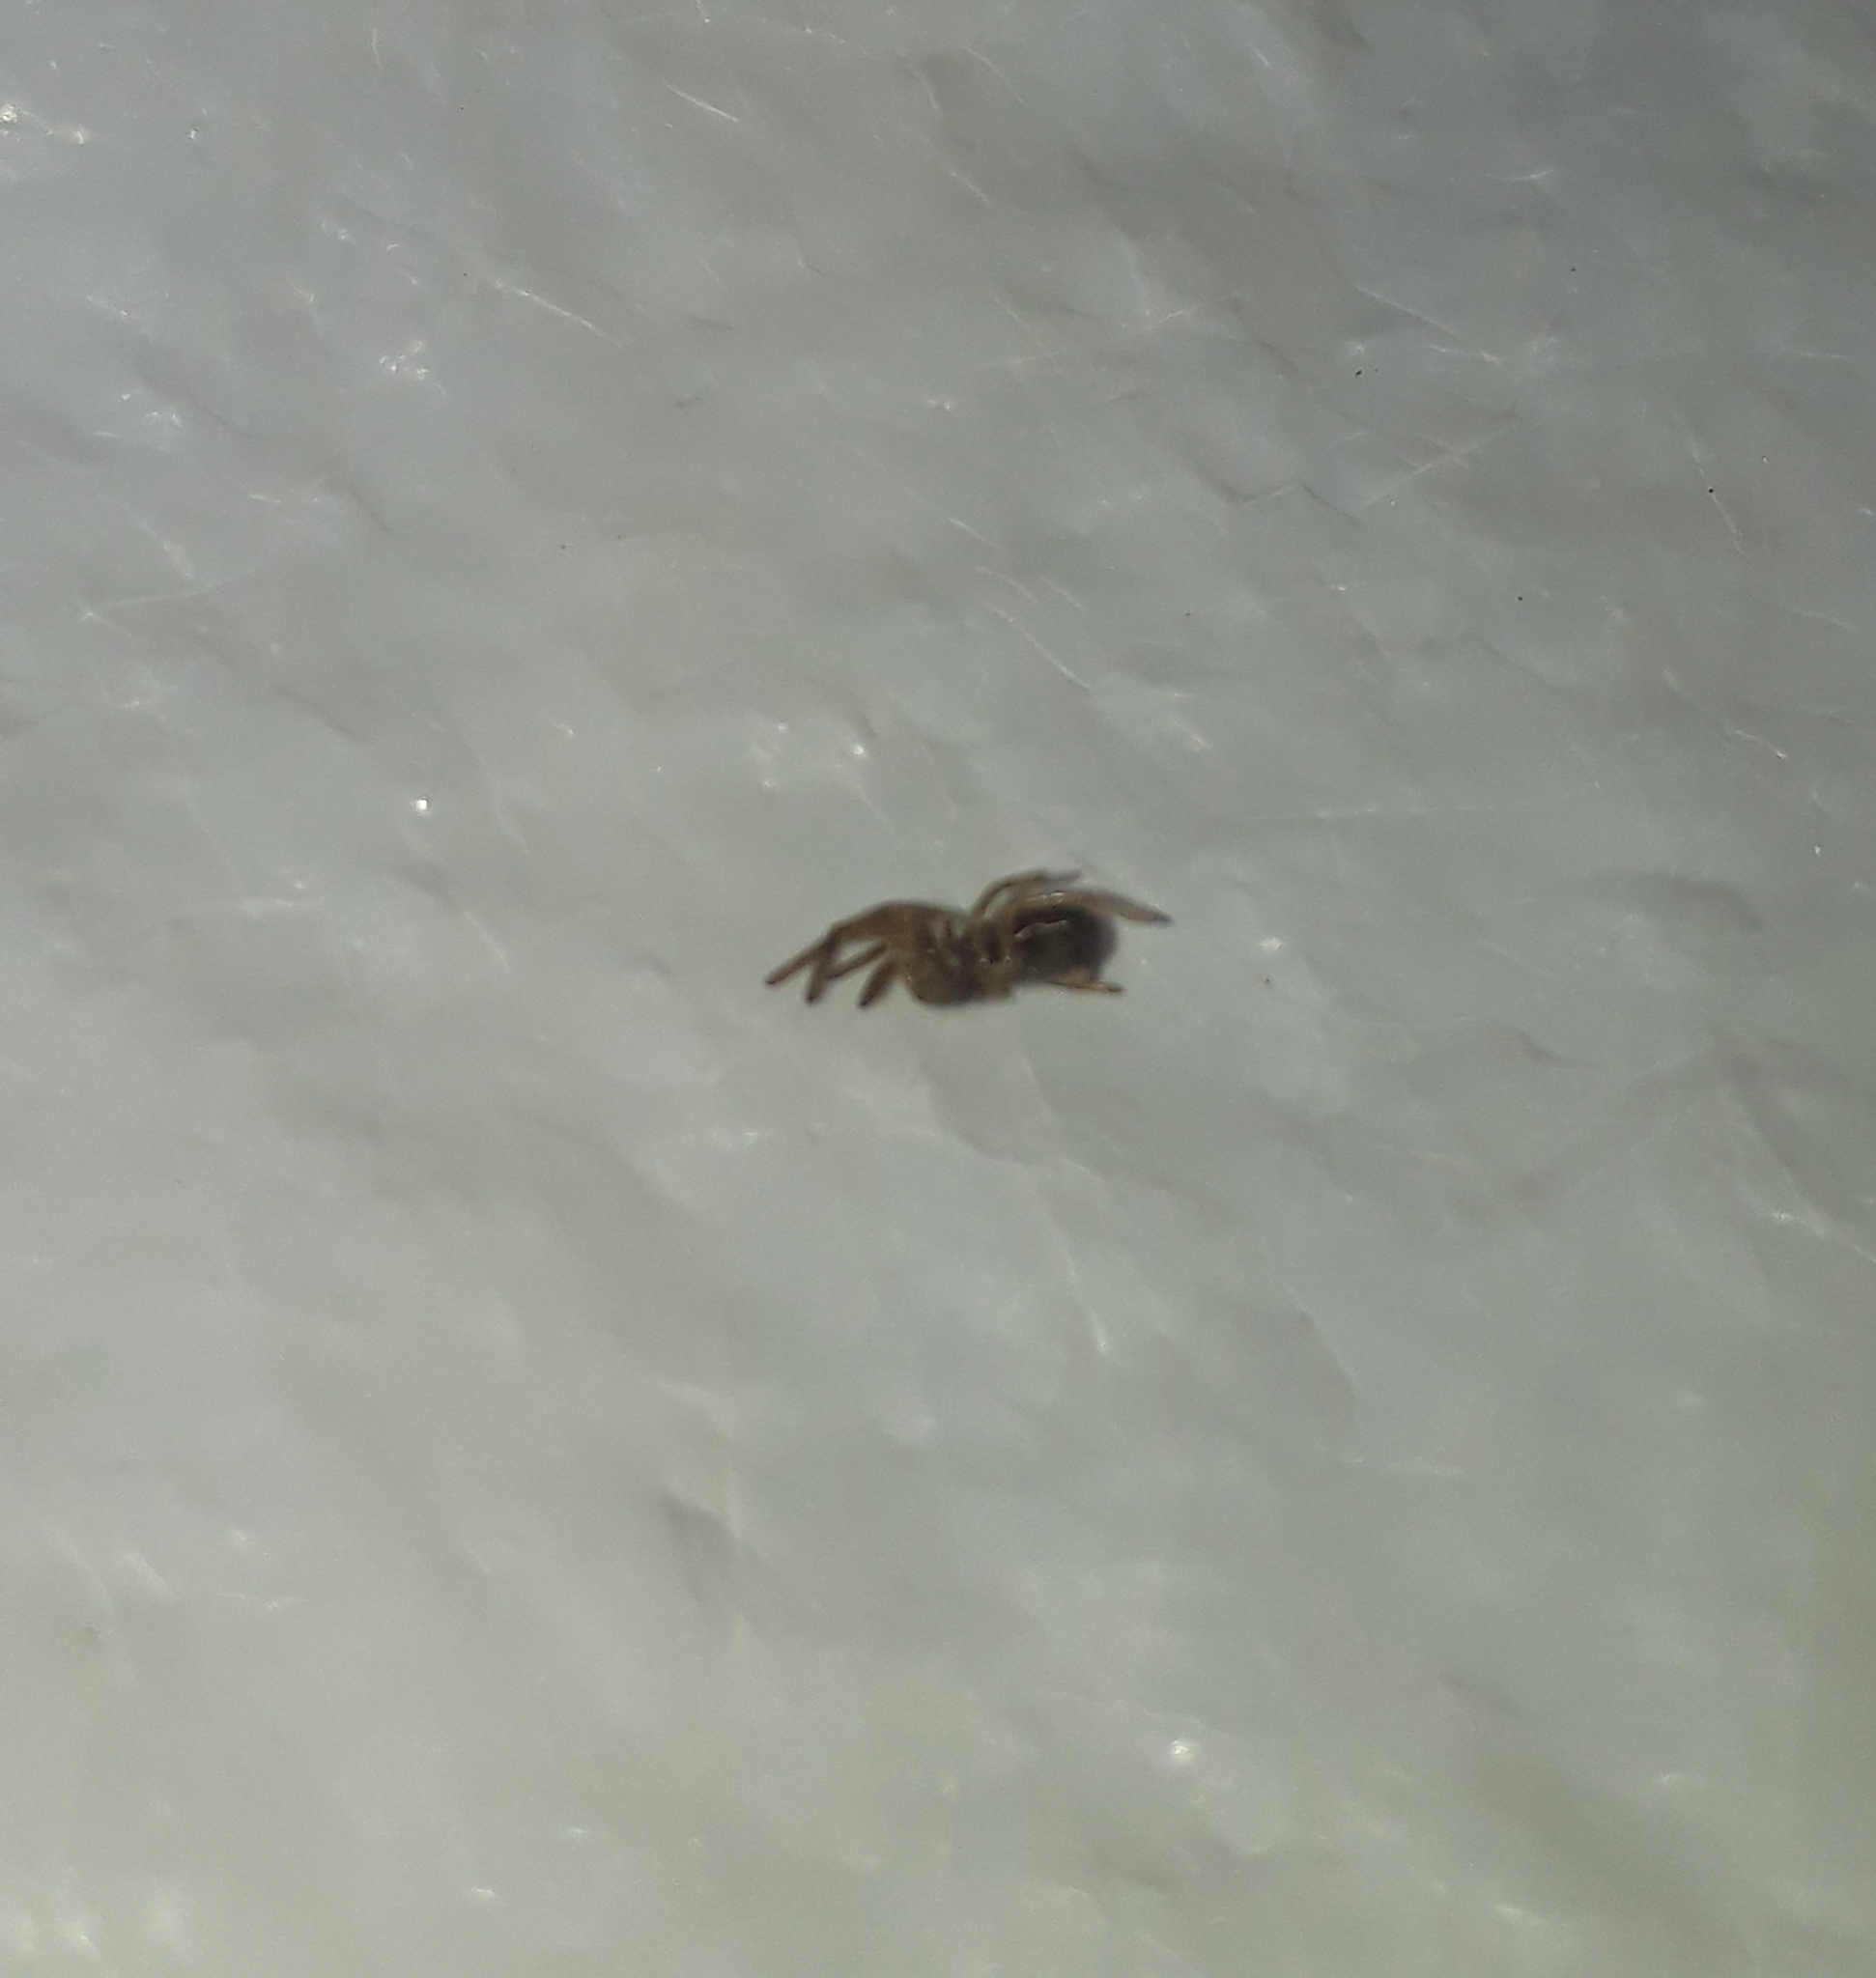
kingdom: Animalia
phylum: Arthropoda
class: Arachnida
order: Araneae
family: Filistatidae
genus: Kukulcania
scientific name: Kukulcania hibernalis
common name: Crevice weaver
